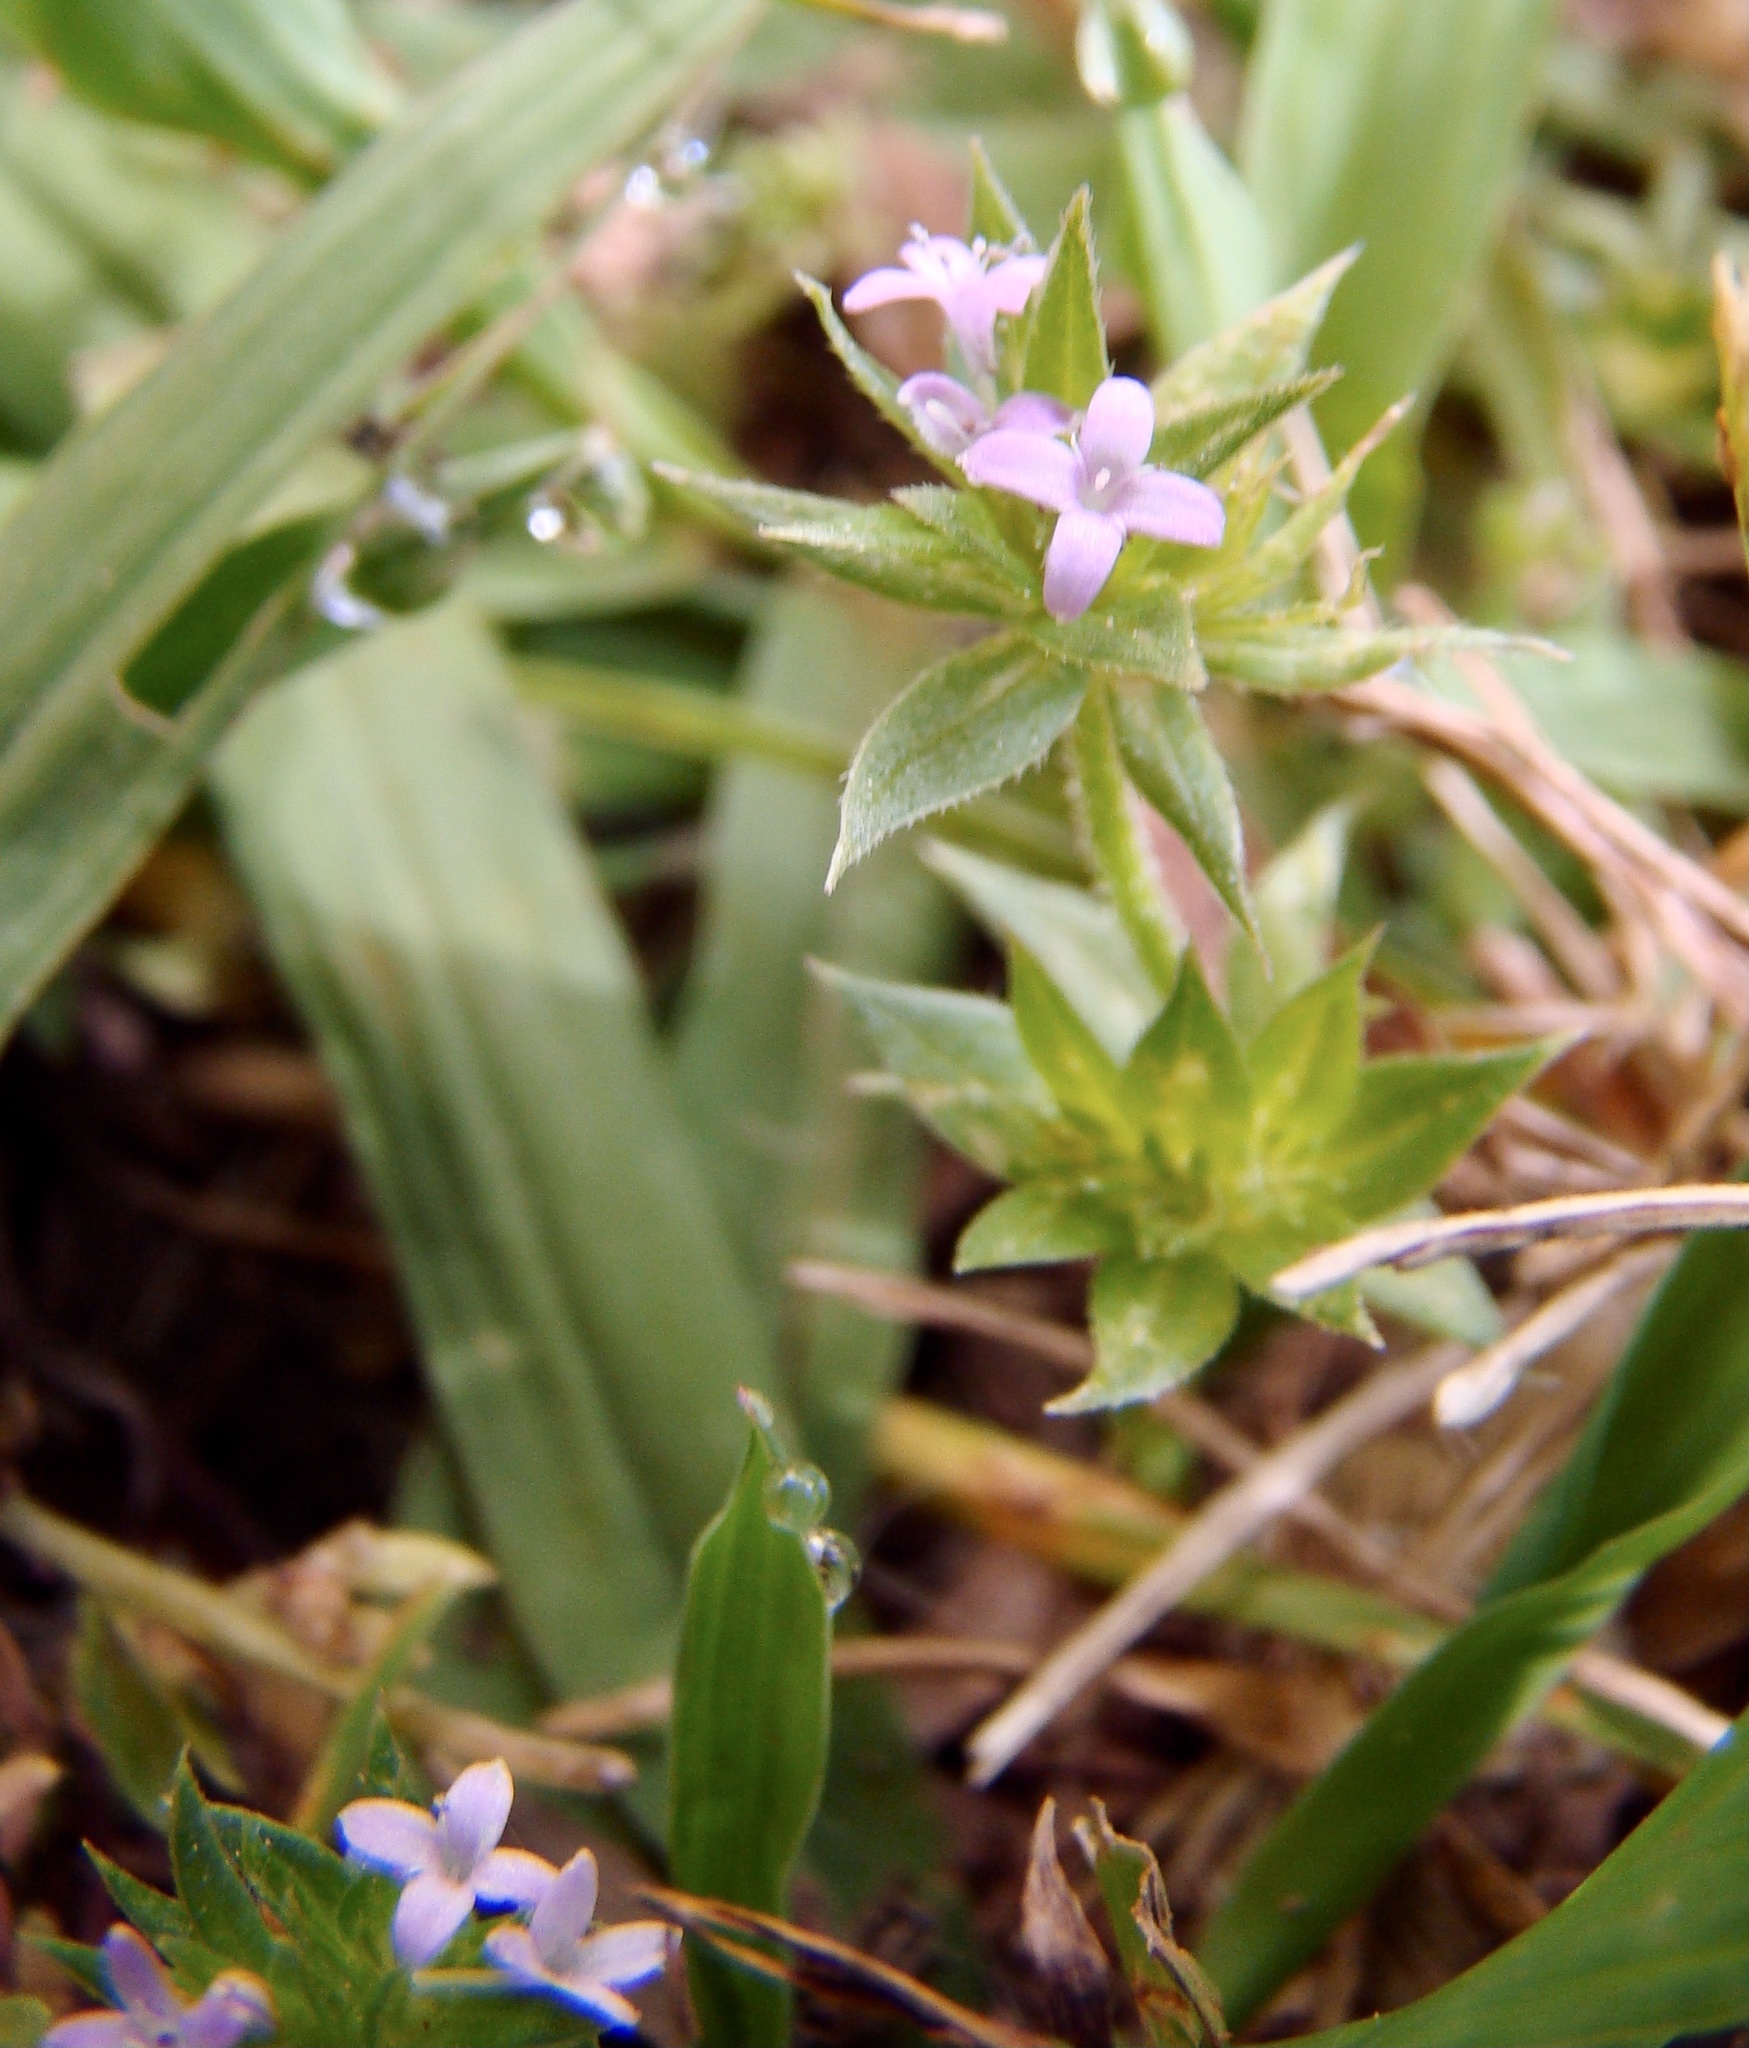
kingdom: Plantae
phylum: Tracheophyta
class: Magnoliopsida
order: Gentianales
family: Rubiaceae
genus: Sherardia
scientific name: Sherardia arvensis
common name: Field madder
